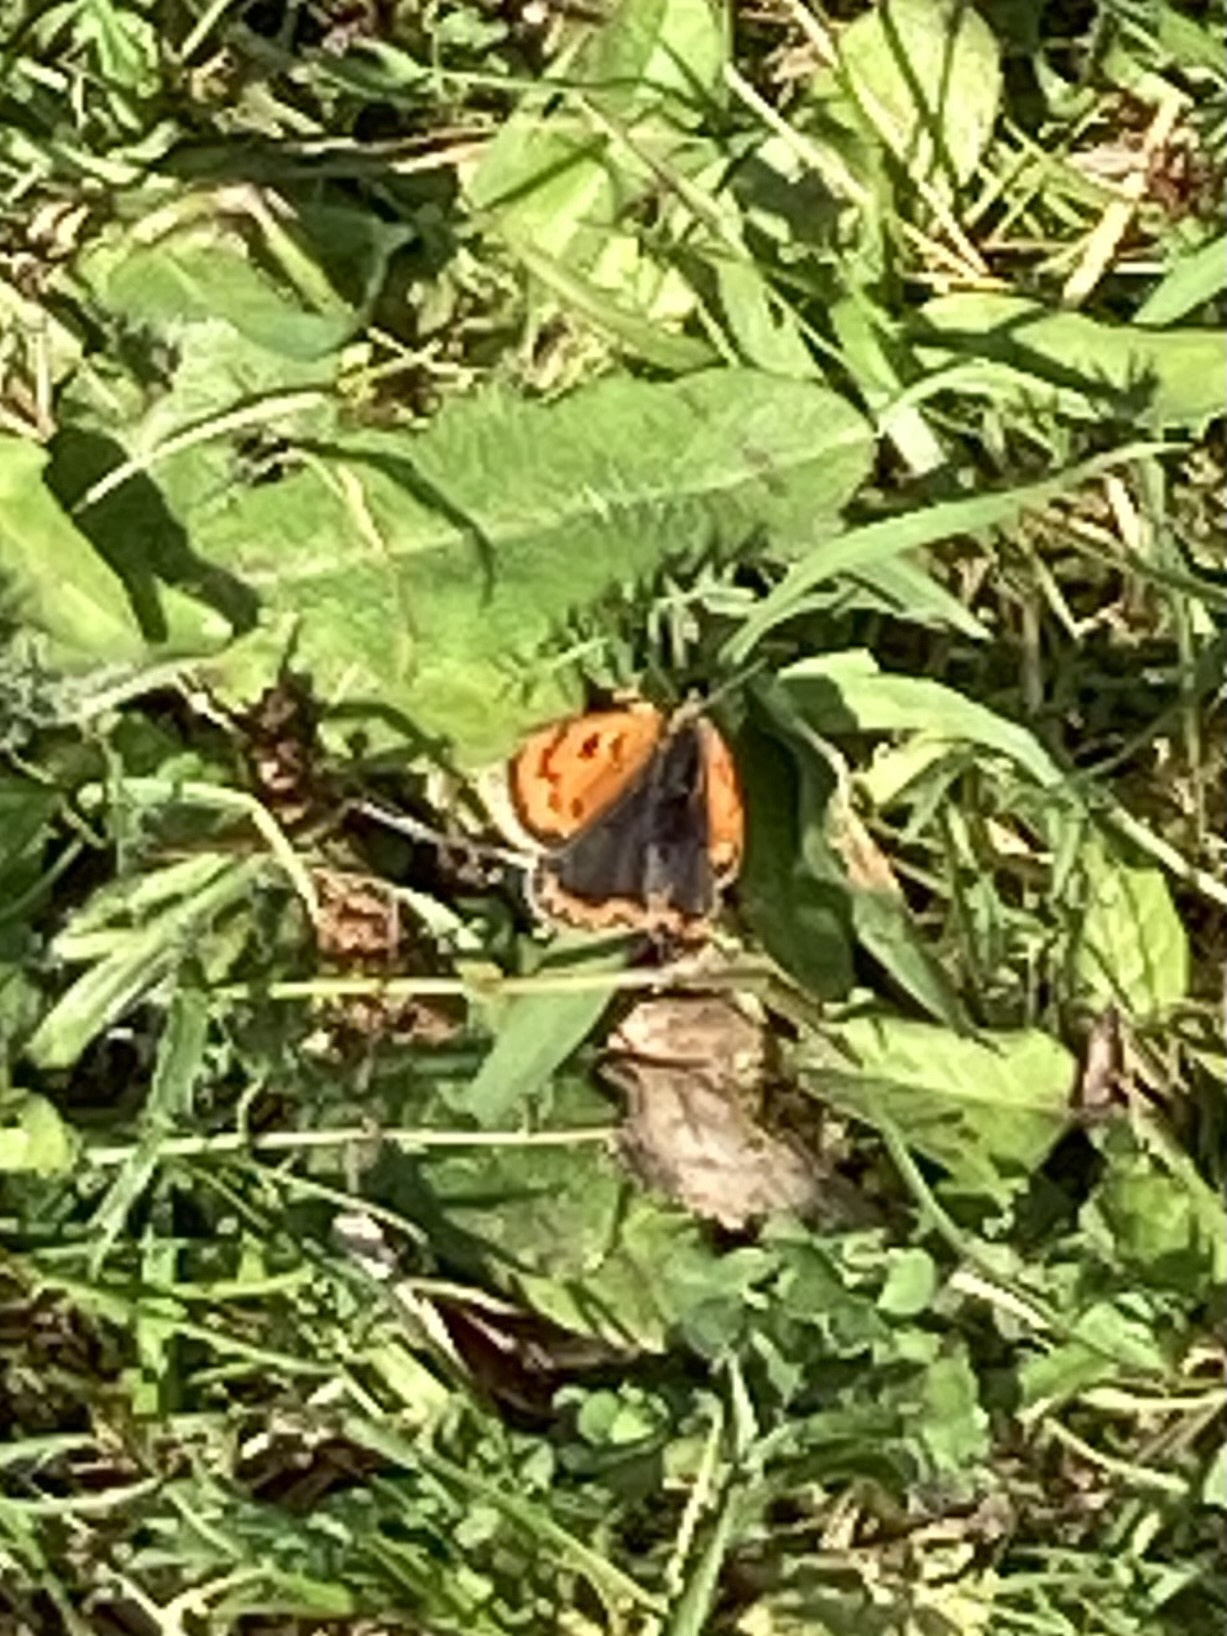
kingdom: Animalia
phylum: Arthropoda
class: Insecta
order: Lepidoptera
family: Lycaenidae
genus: Lycaena
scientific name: Lycaena phlaeas
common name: Small copper
